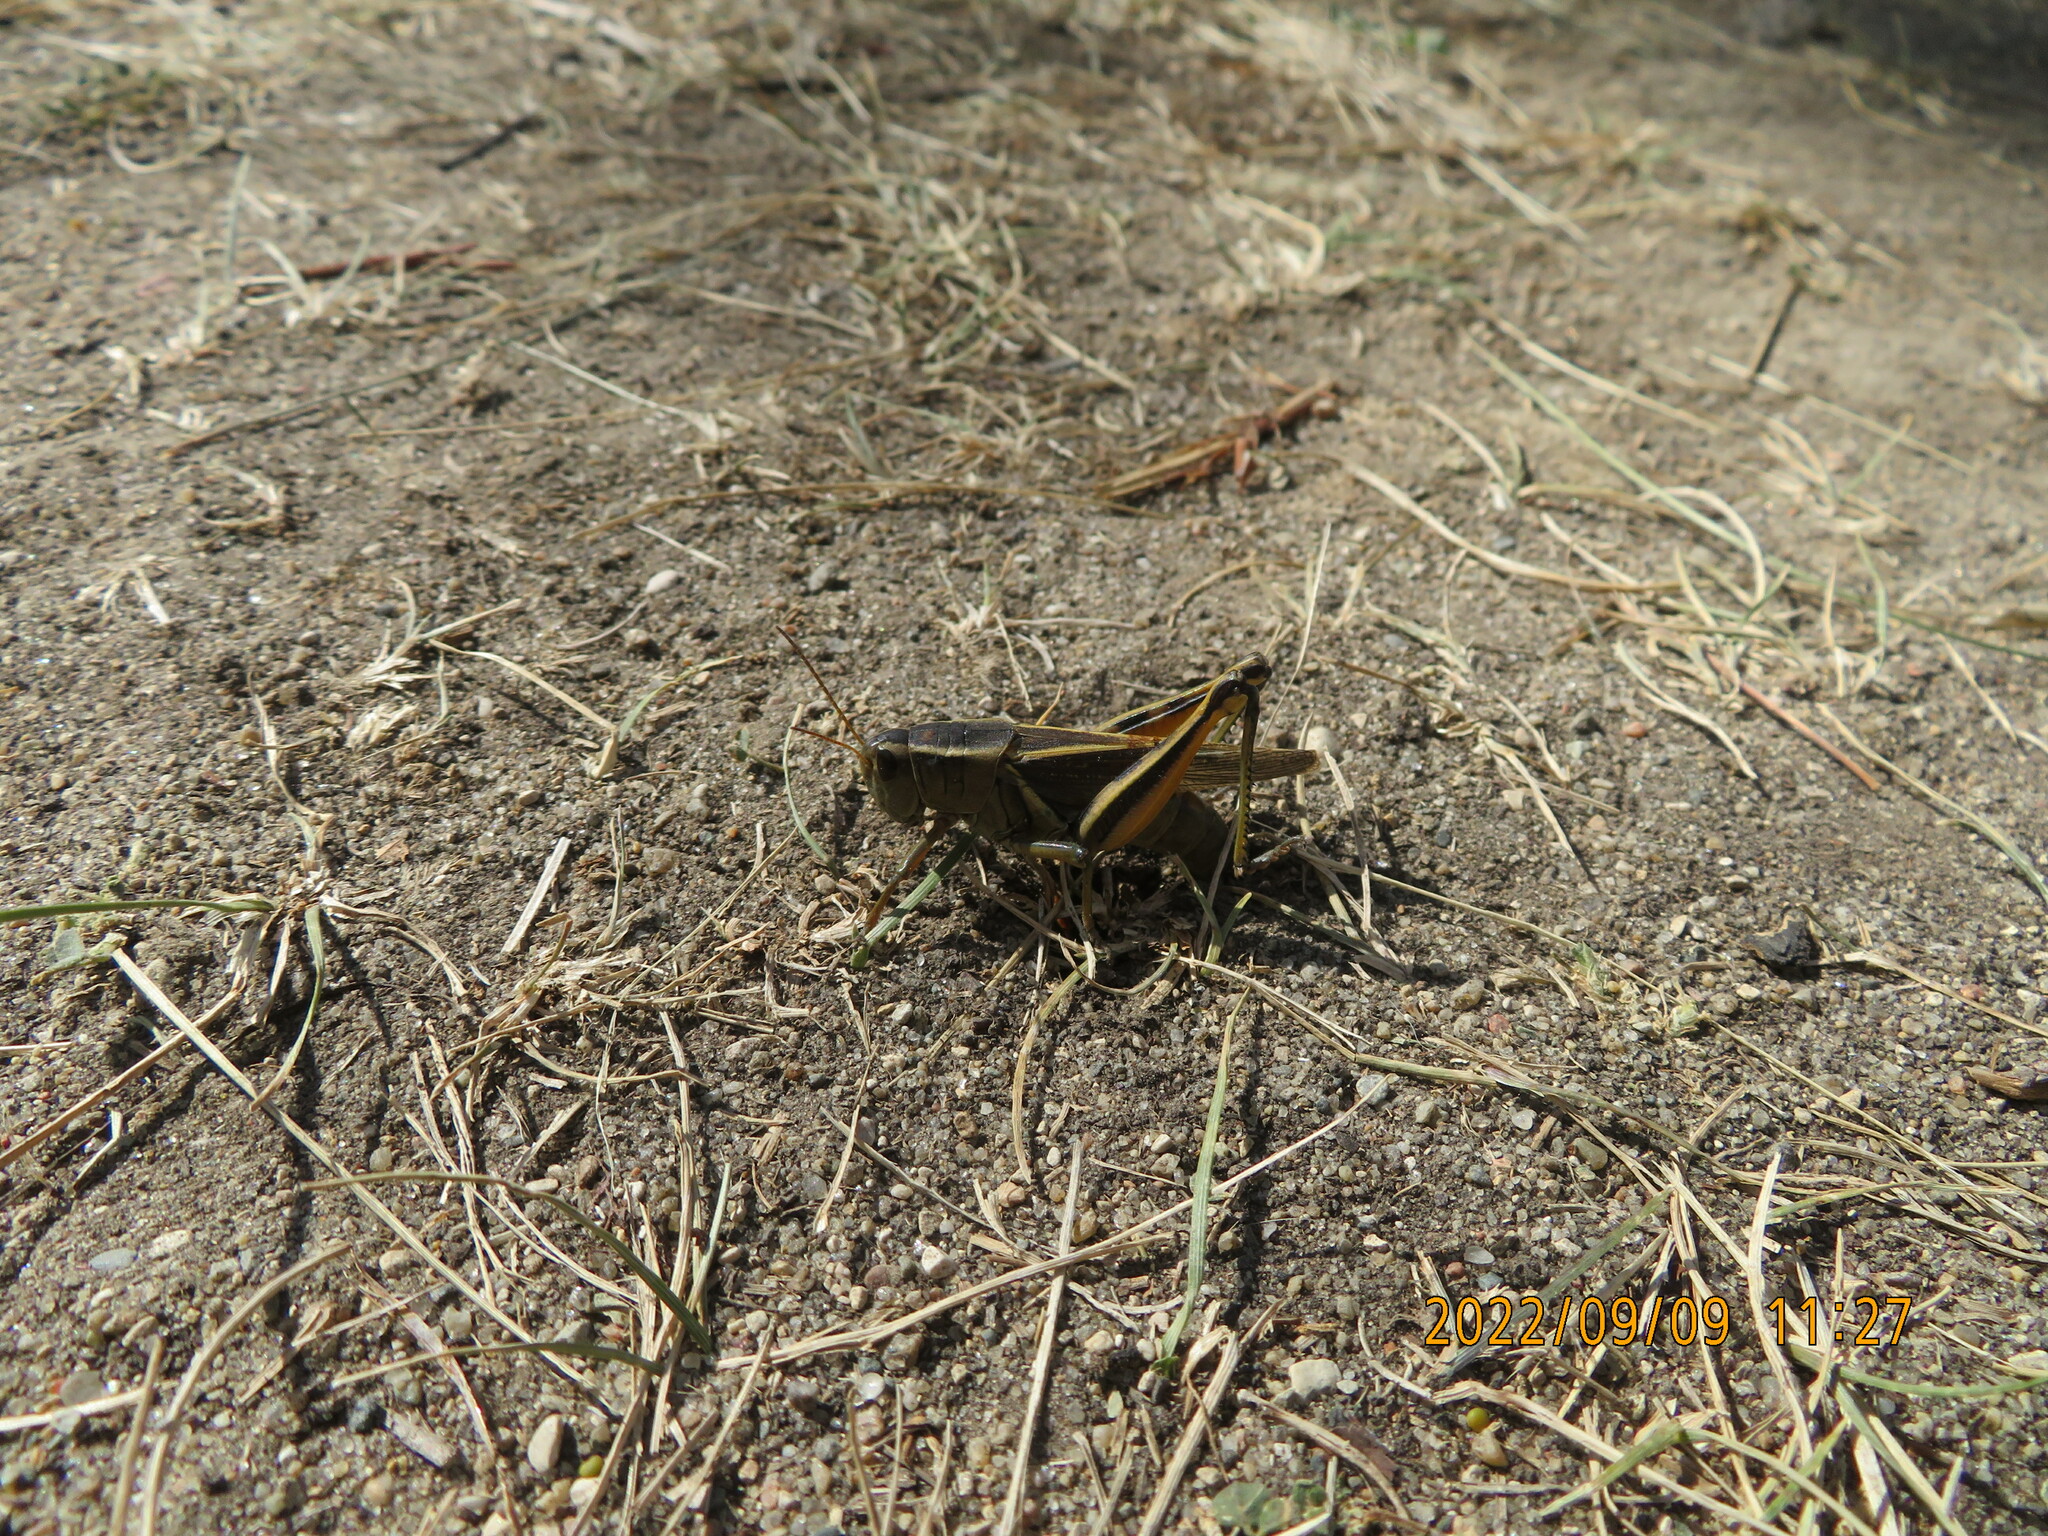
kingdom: Animalia
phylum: Arthropoda
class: Insecta
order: Orthoptera
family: Acrididae
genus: Melanoplus
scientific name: Melanoplus bivittatus
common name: Two-striped grasshopper
